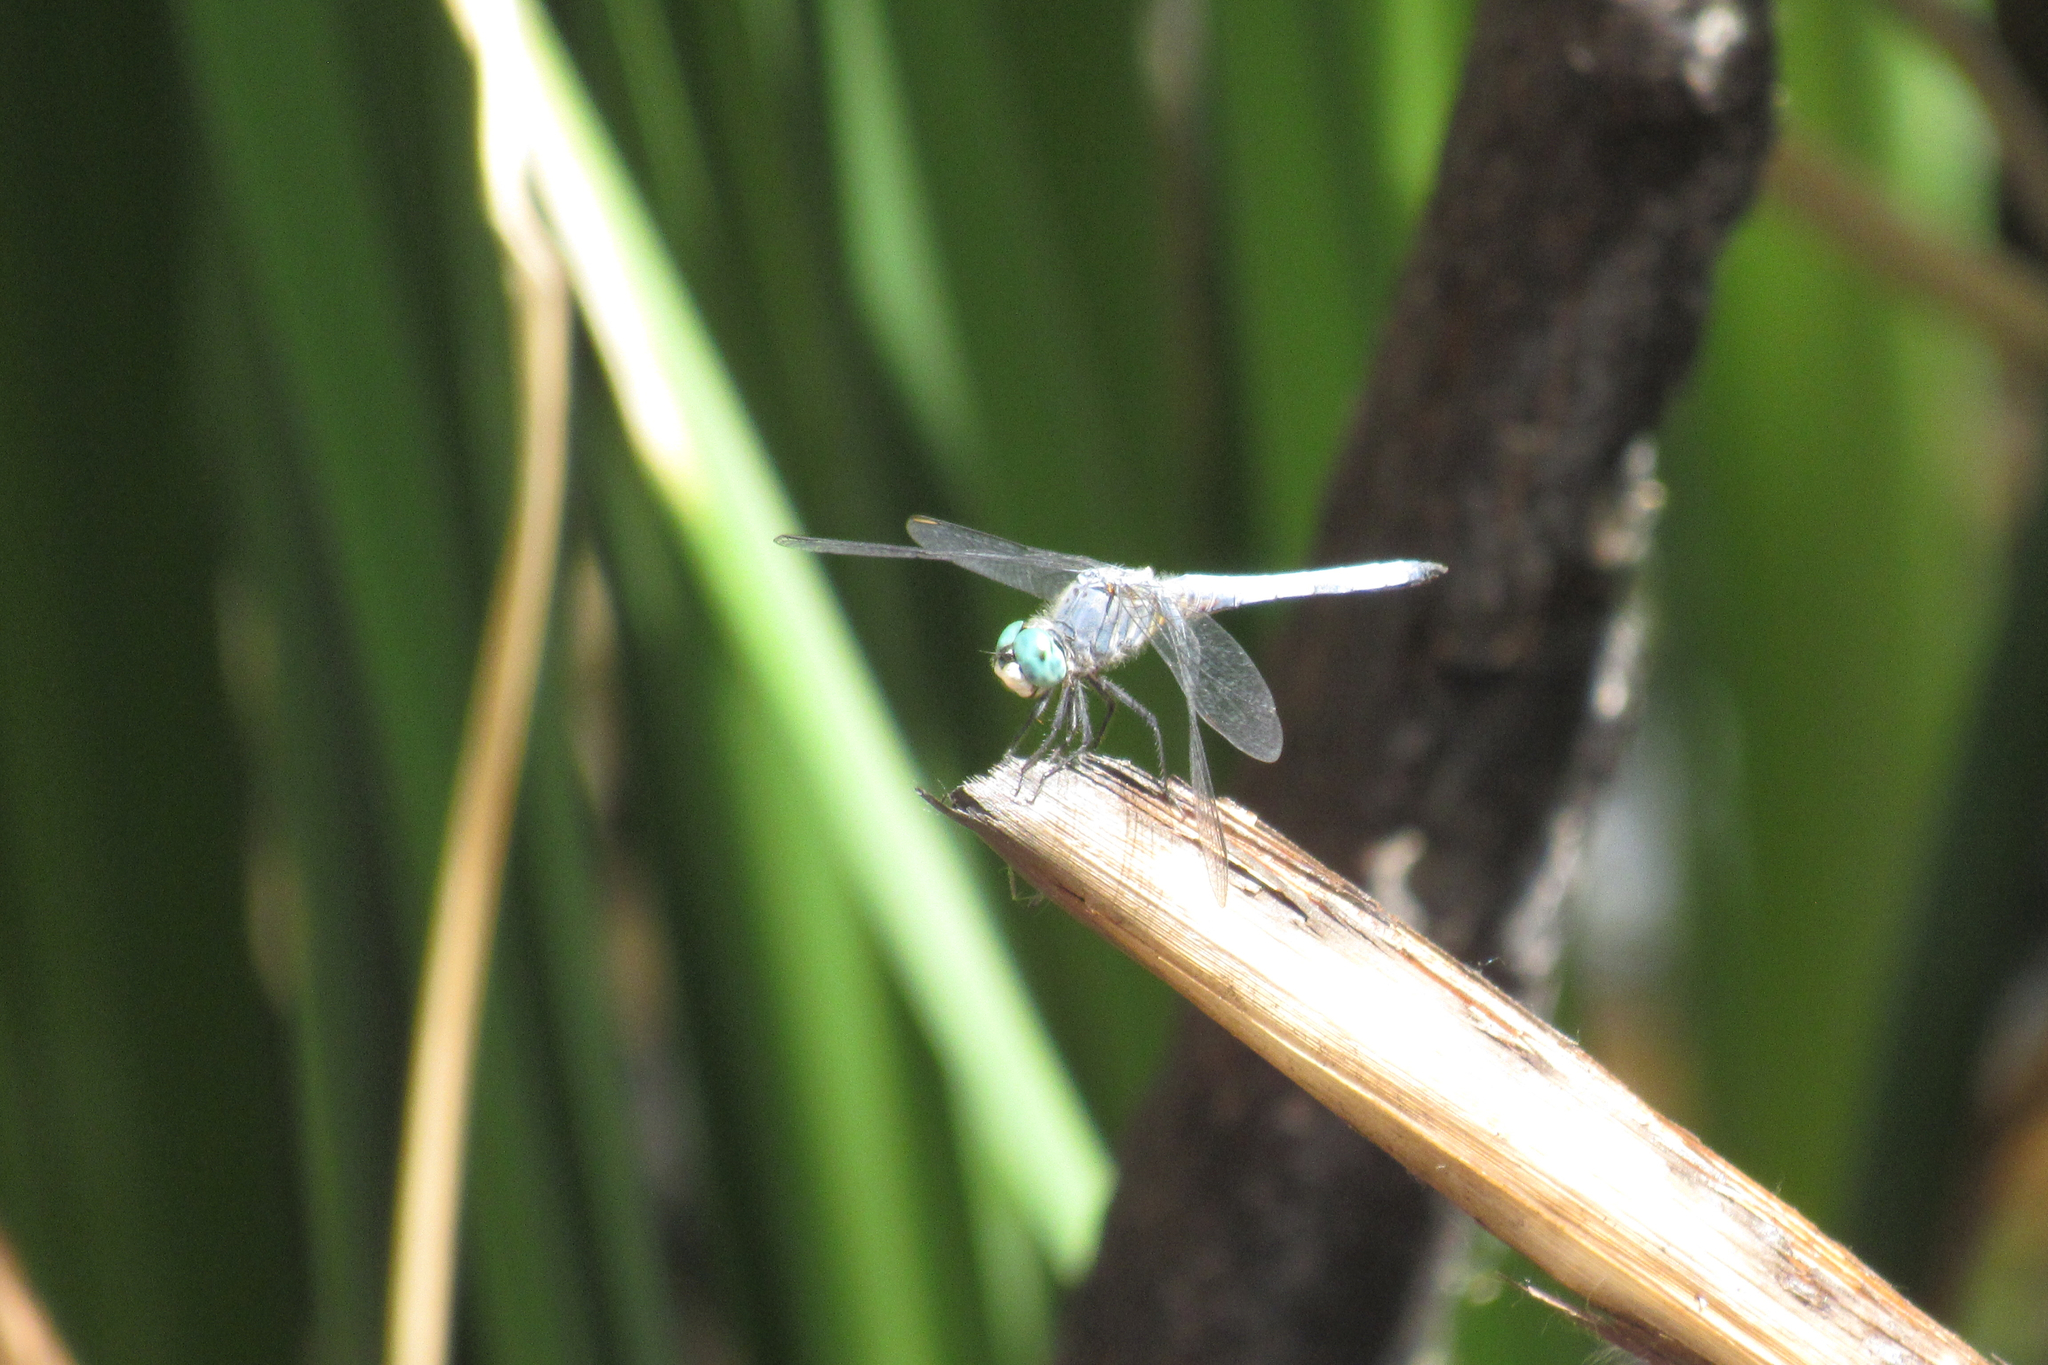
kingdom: Animalia
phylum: Arthropoda
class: Insecta
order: Odonata
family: Libellulidae
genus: Pachydiplax
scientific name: Pachydiplax longipennis
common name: Blue dasher
